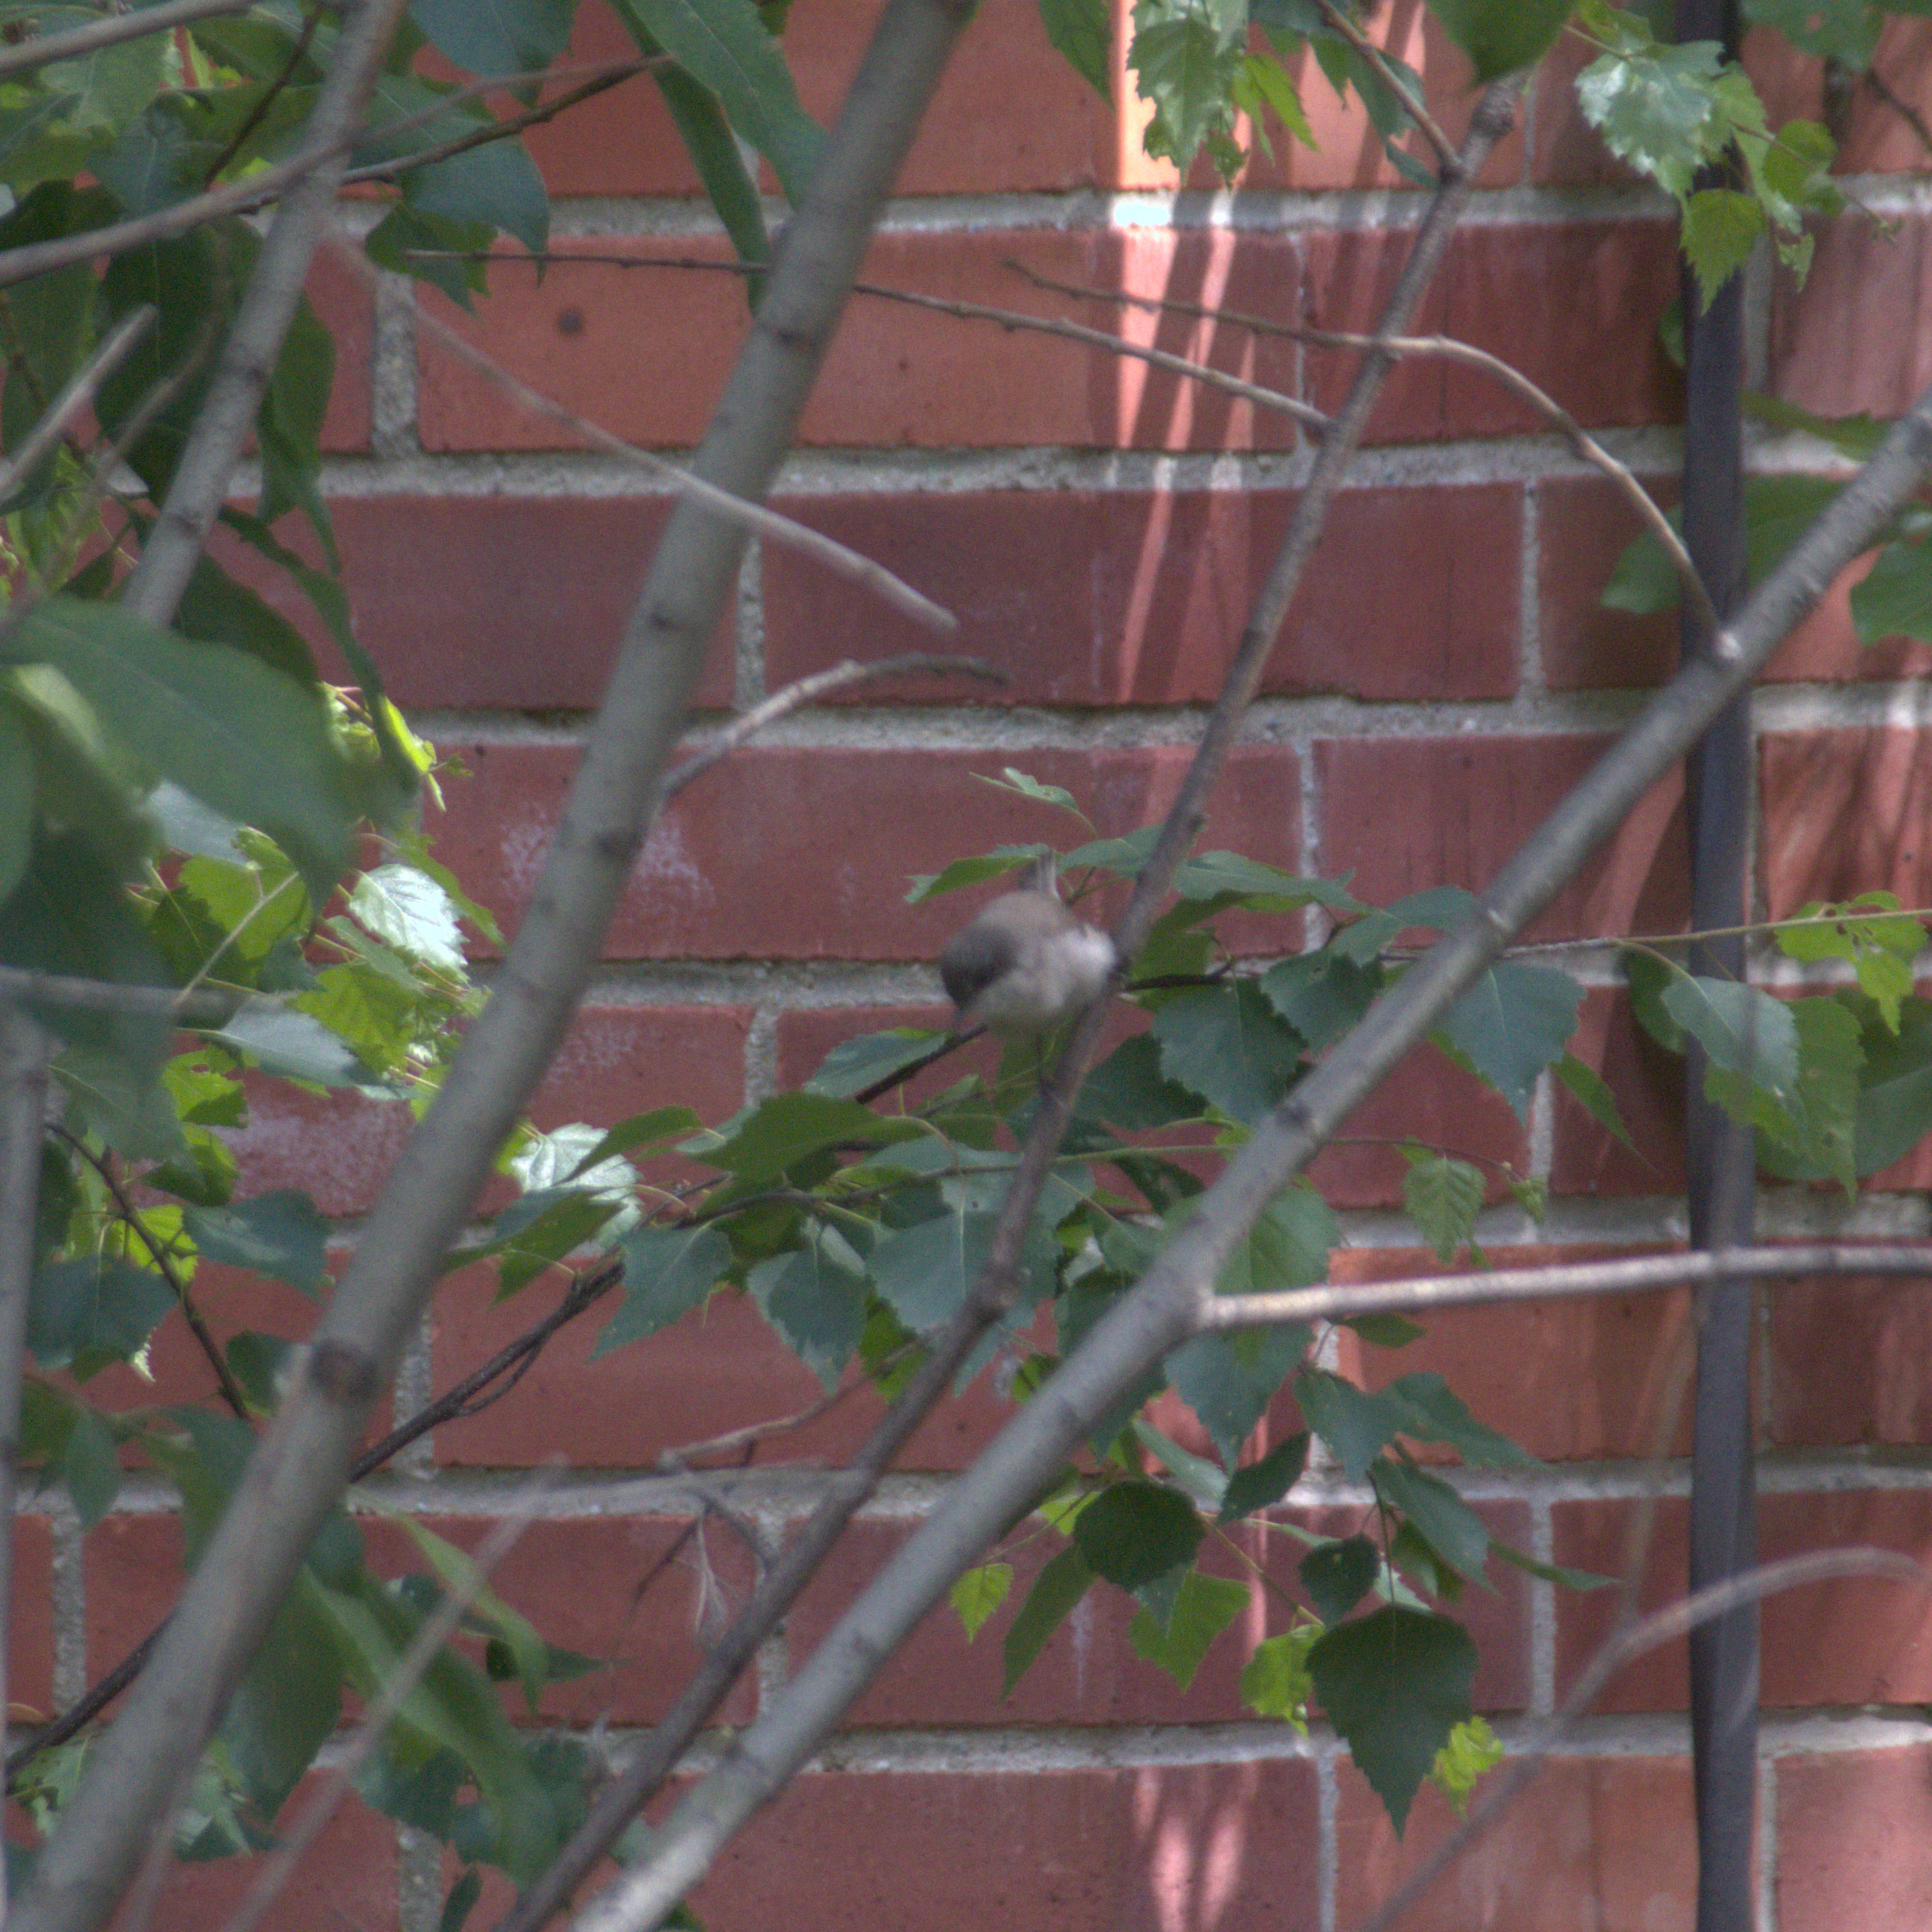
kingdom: Animalia
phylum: Chordata
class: Aves
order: Passeriformes
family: Sylviidae
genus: Sylvia
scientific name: Sylvia curruca
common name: Lesser whitethroat
